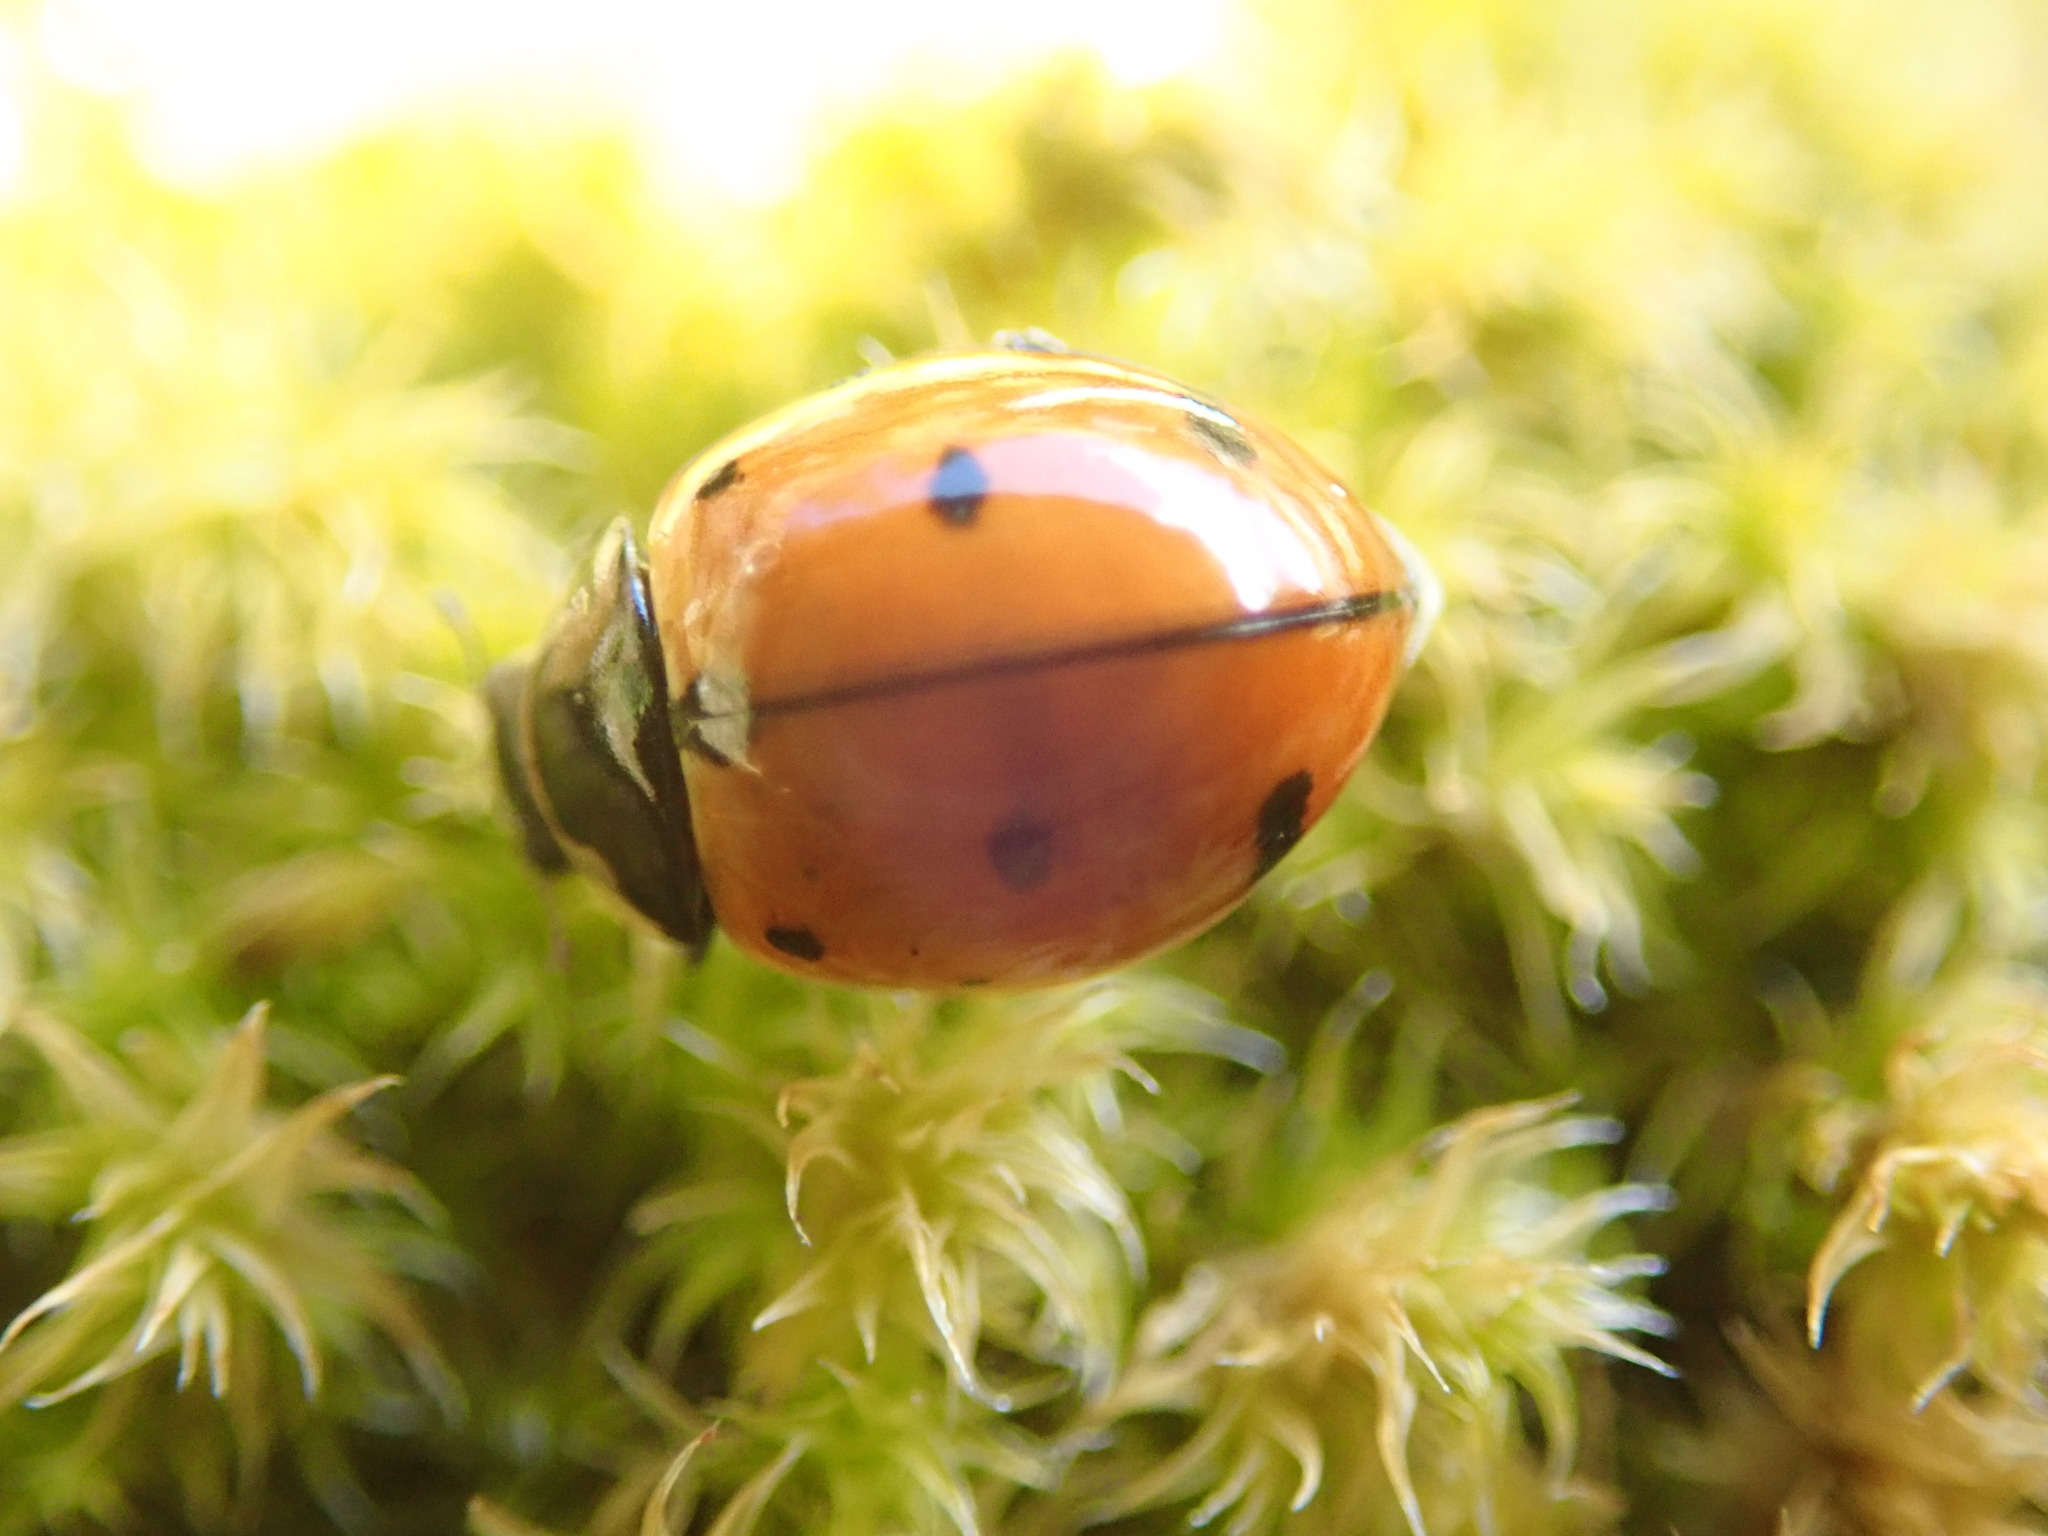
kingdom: Animalia
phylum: Arthropoda
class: Insecta
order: Coleoptera
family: Coccinellidae
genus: Coccinella
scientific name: Coccinella novemnotata
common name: Nine-spotted lady beetle
